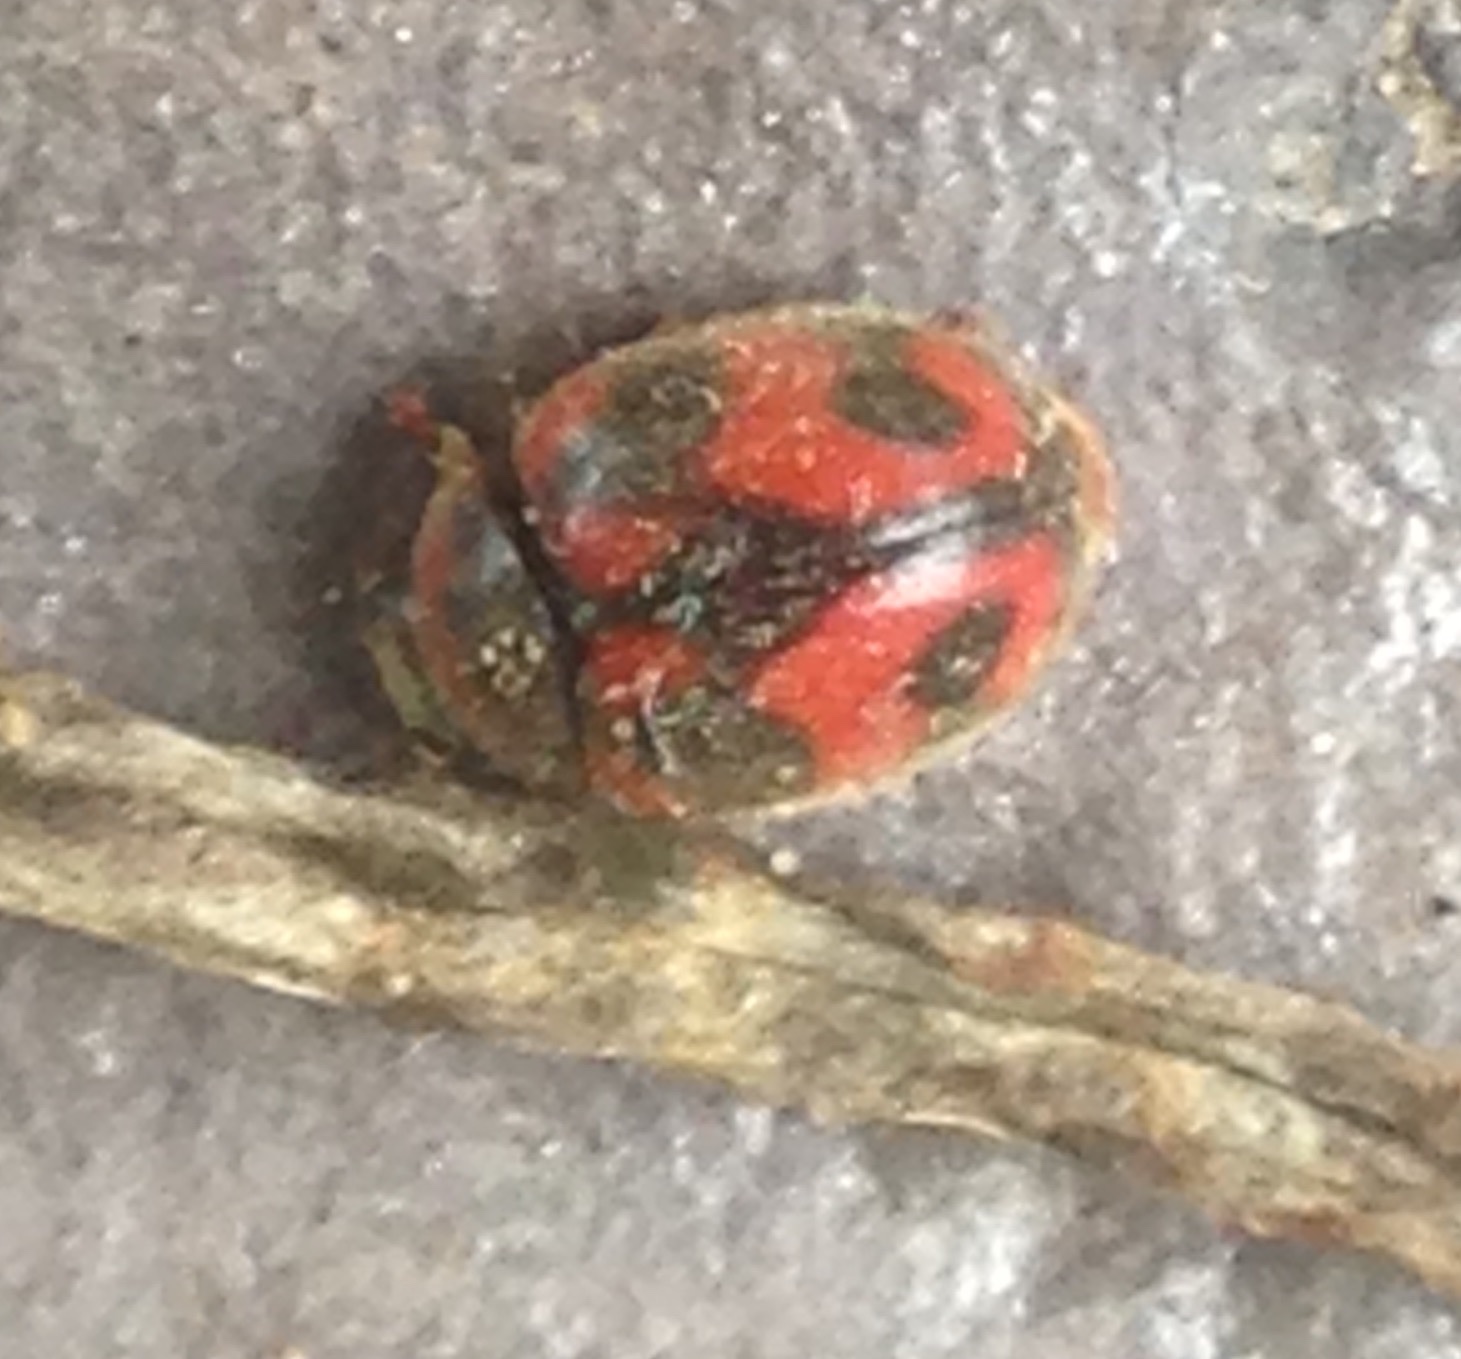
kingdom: Animalia
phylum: Arthropoda
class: Insecta
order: Coleoptera
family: Coccinellidae
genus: Novius
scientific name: Novius cardinalis
